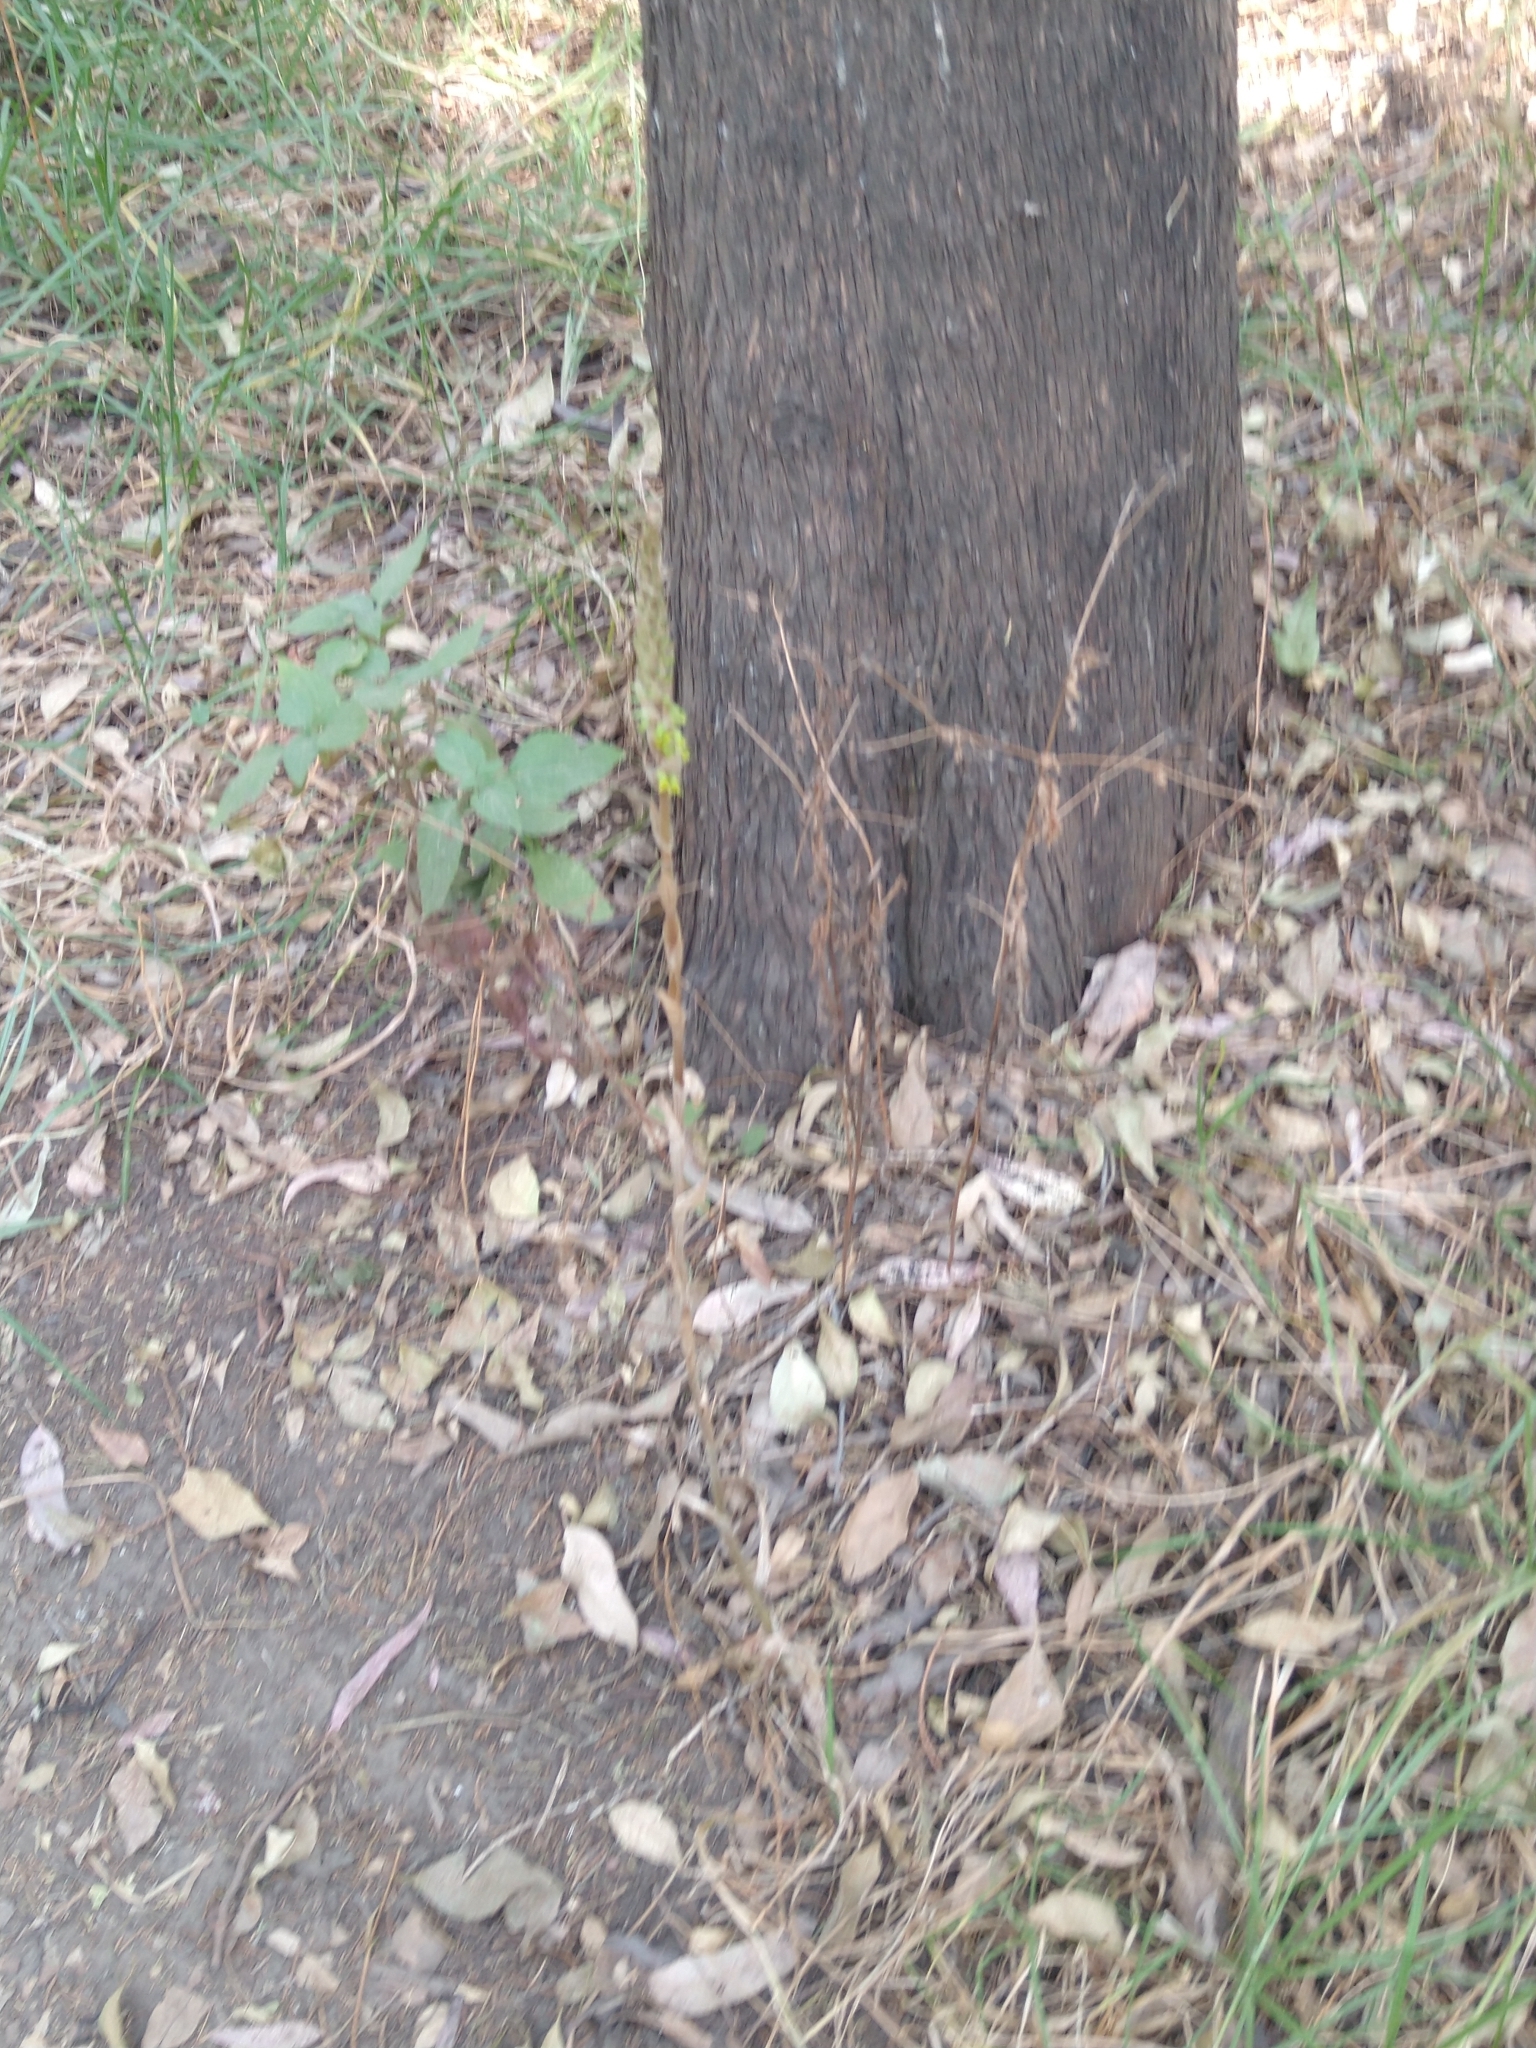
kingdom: Plantae
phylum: Tracheophyta
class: Liliopsida
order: Asparagales
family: Orchidaceae
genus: Schiedeella
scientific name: Schiedeella albovaginata
